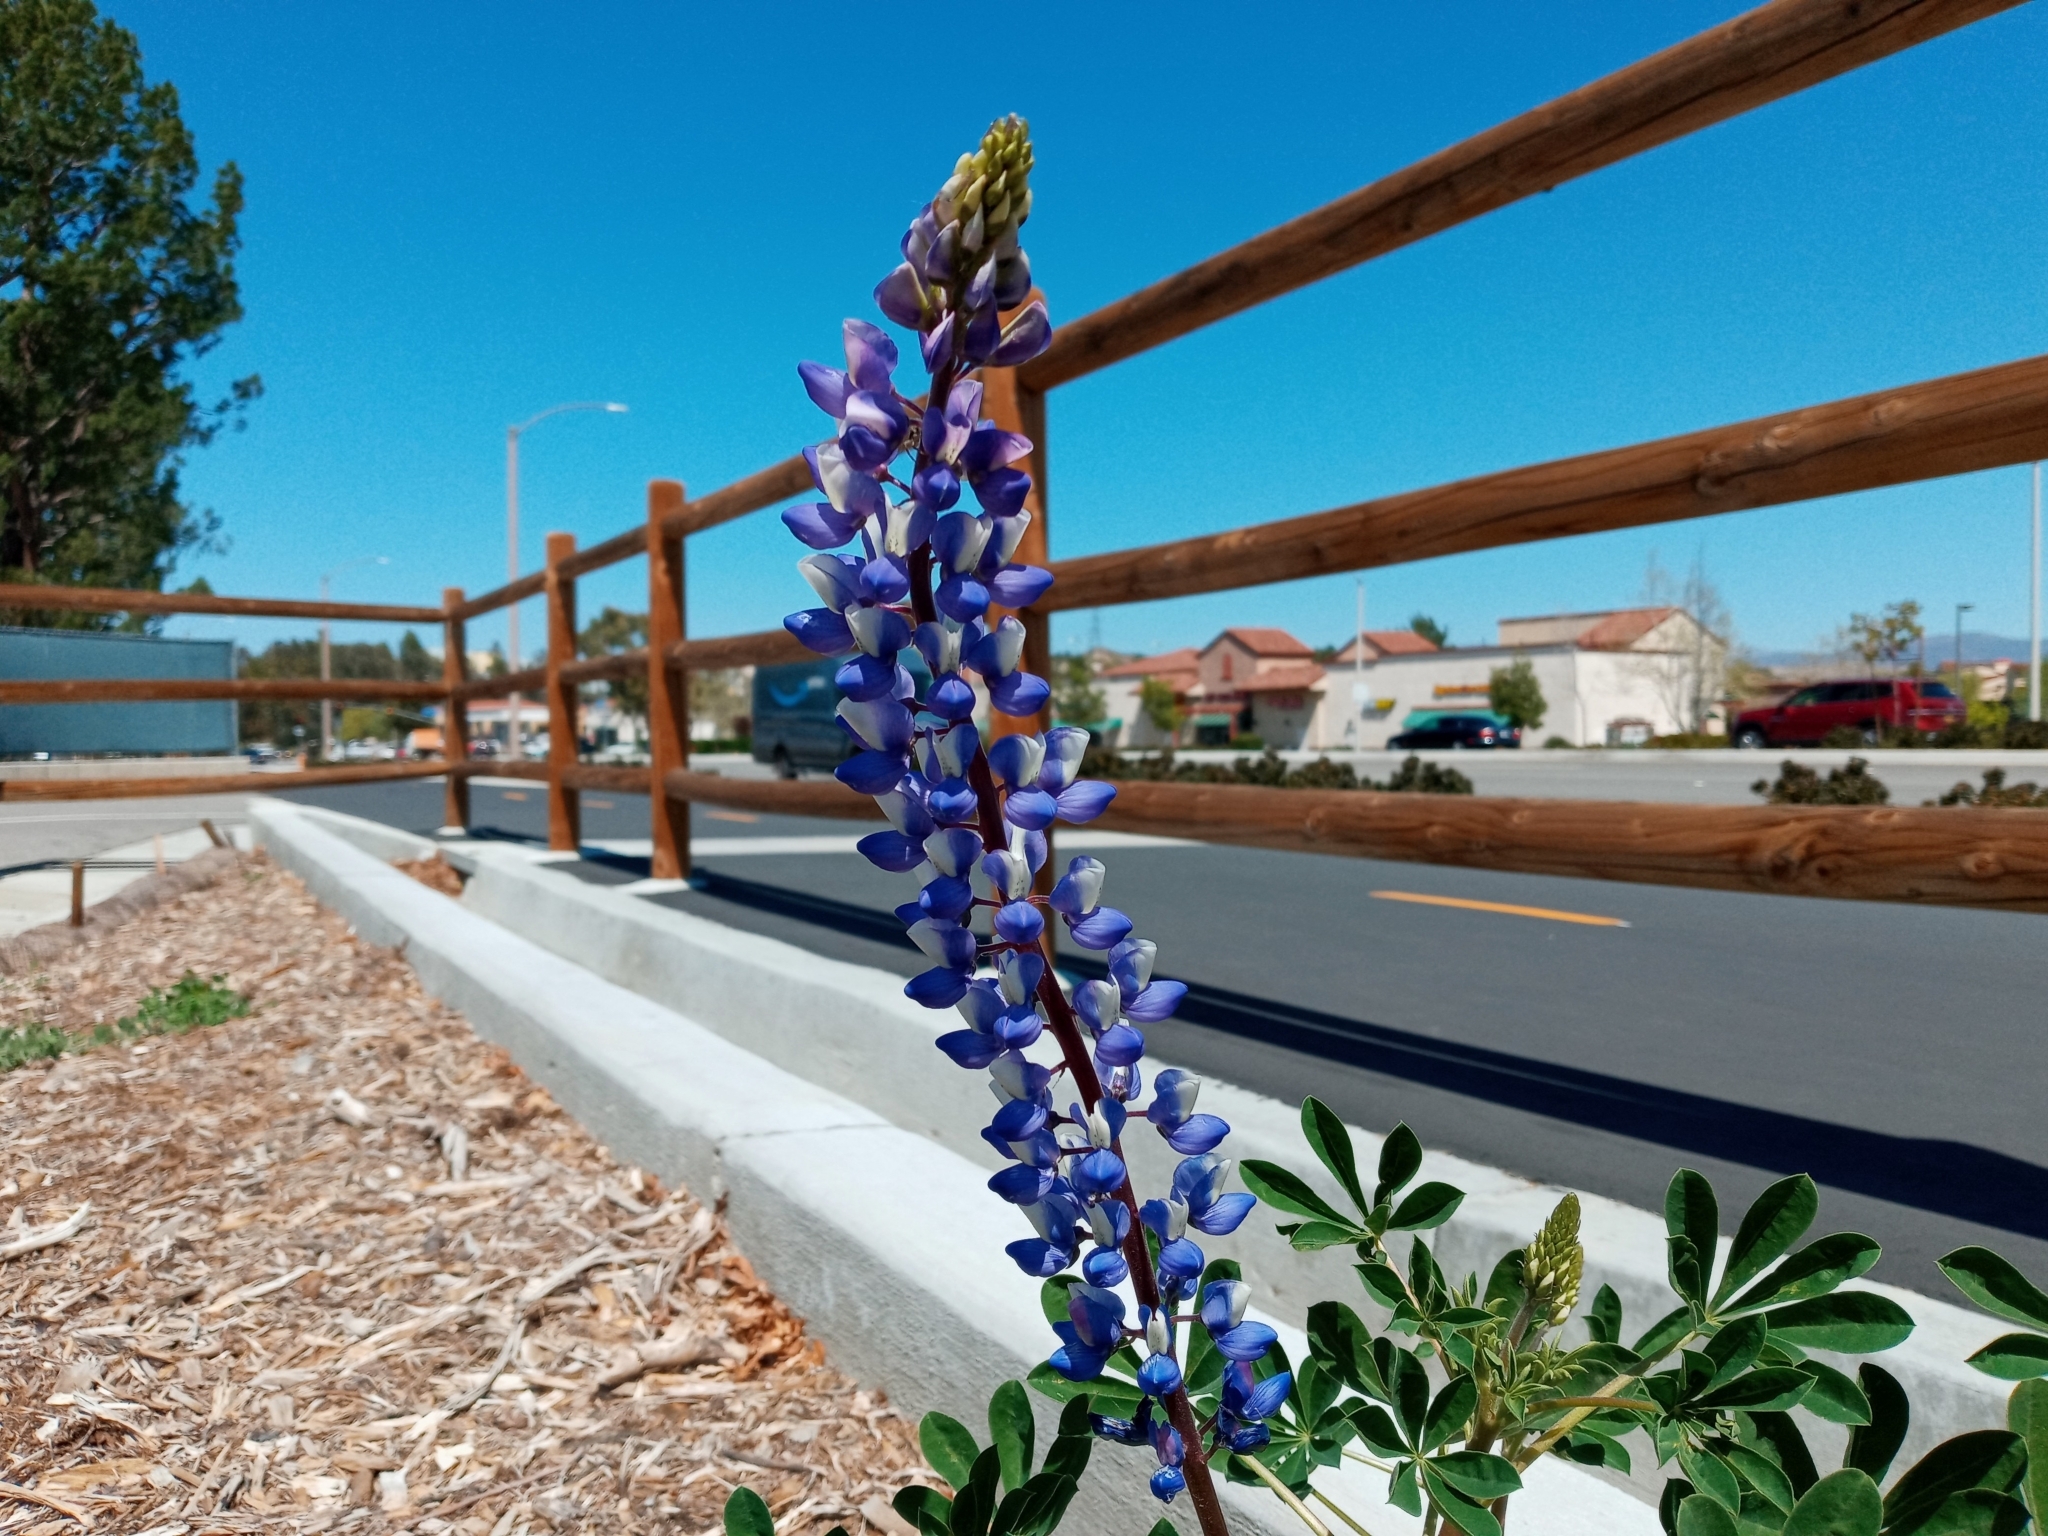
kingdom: Plantae
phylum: Tracheophyta
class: Magnoliopsida
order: Fabales
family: Fabaceae
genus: Lupinus
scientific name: Lupinus succulentus
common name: Arroyo lupine
